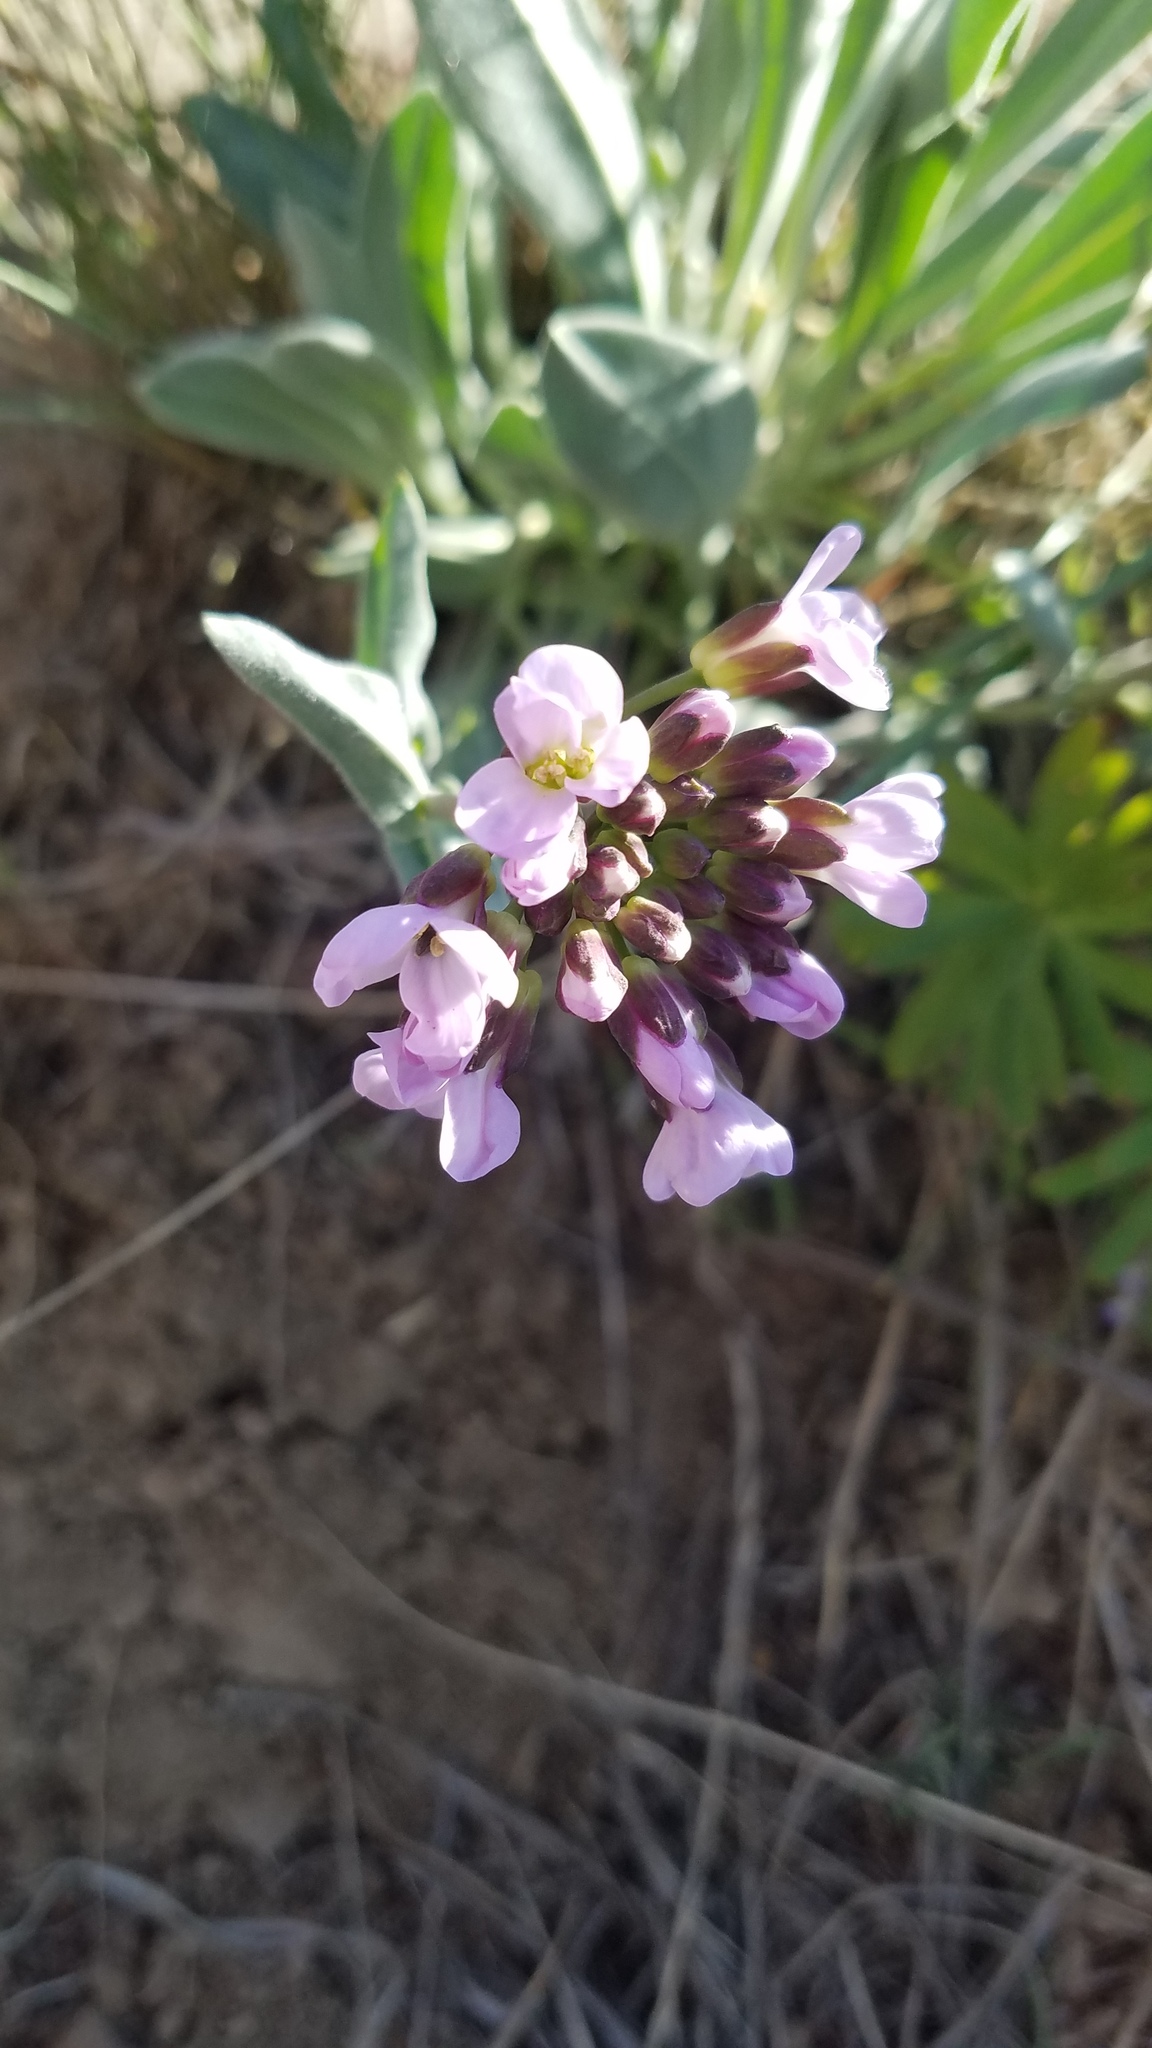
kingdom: Plantae
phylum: Tracheophyta
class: Magnoliopsida
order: Brassicales
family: Brassicaceae
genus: Phoenicaulis
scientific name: Phoenicaulis cheiranthoides
